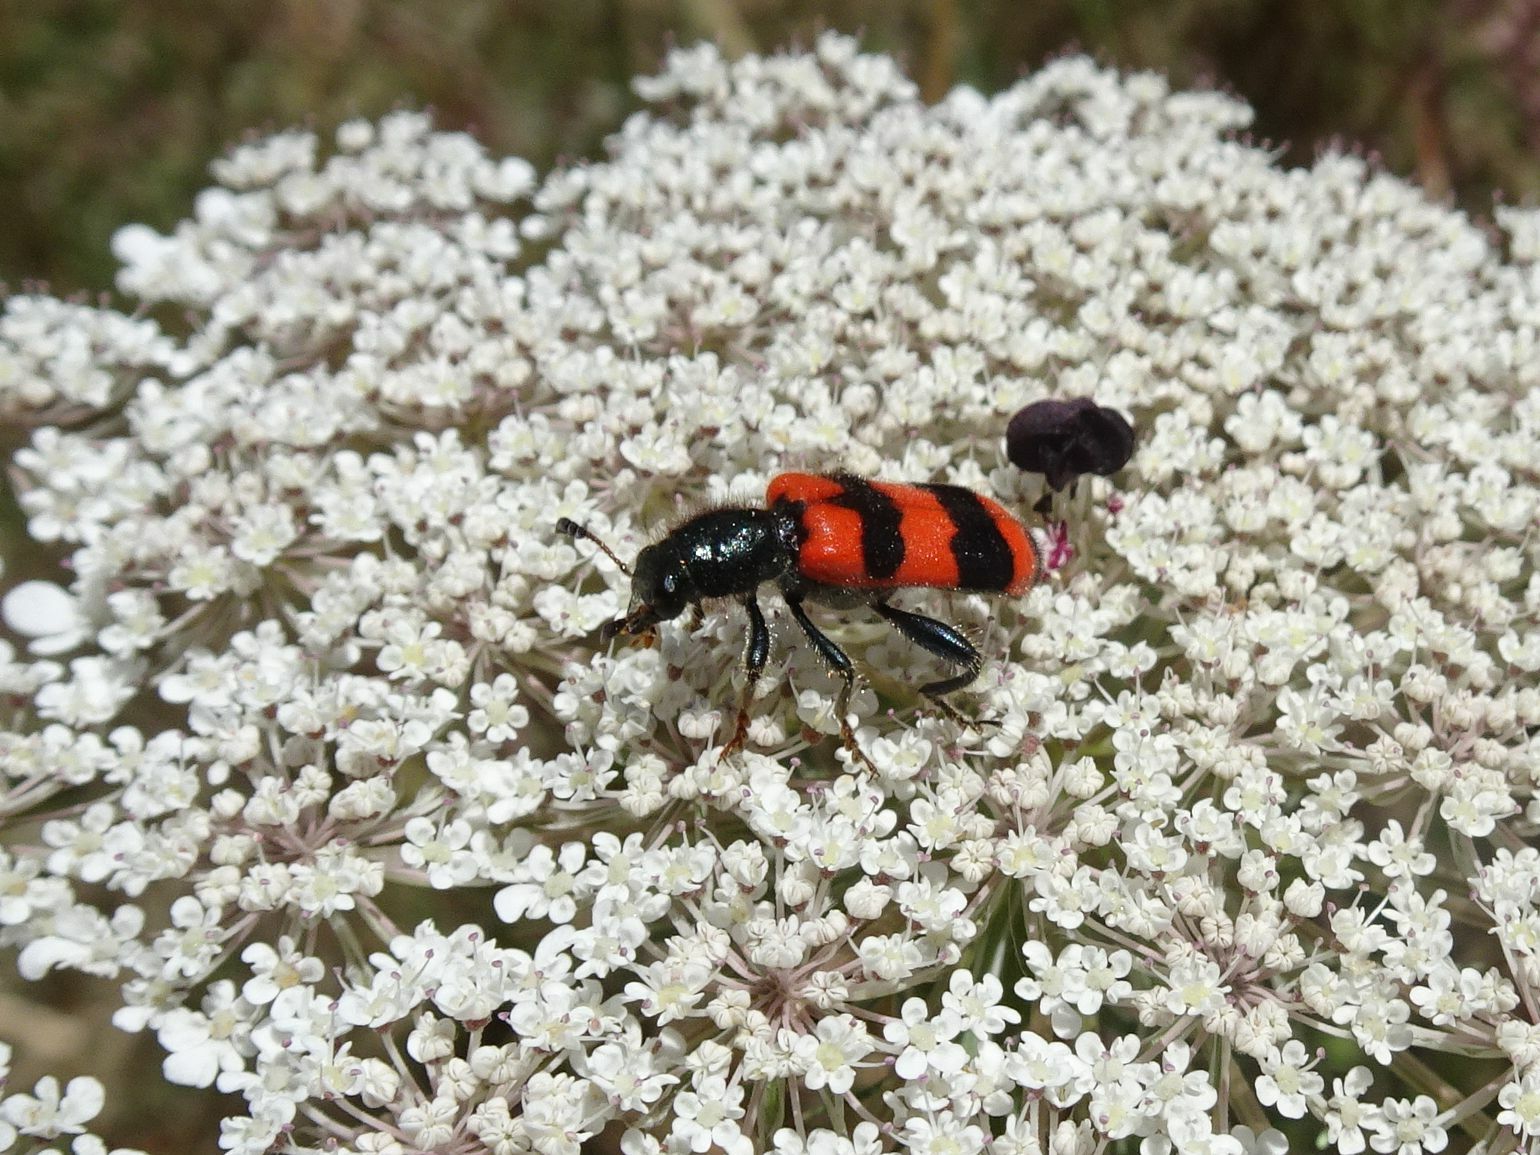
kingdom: Animalia
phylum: Arthropoda
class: Insecta
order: Coleoptera
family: Cleridae
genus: Trichodes
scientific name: Trichodes apiarius
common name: Bee-eating beetle
